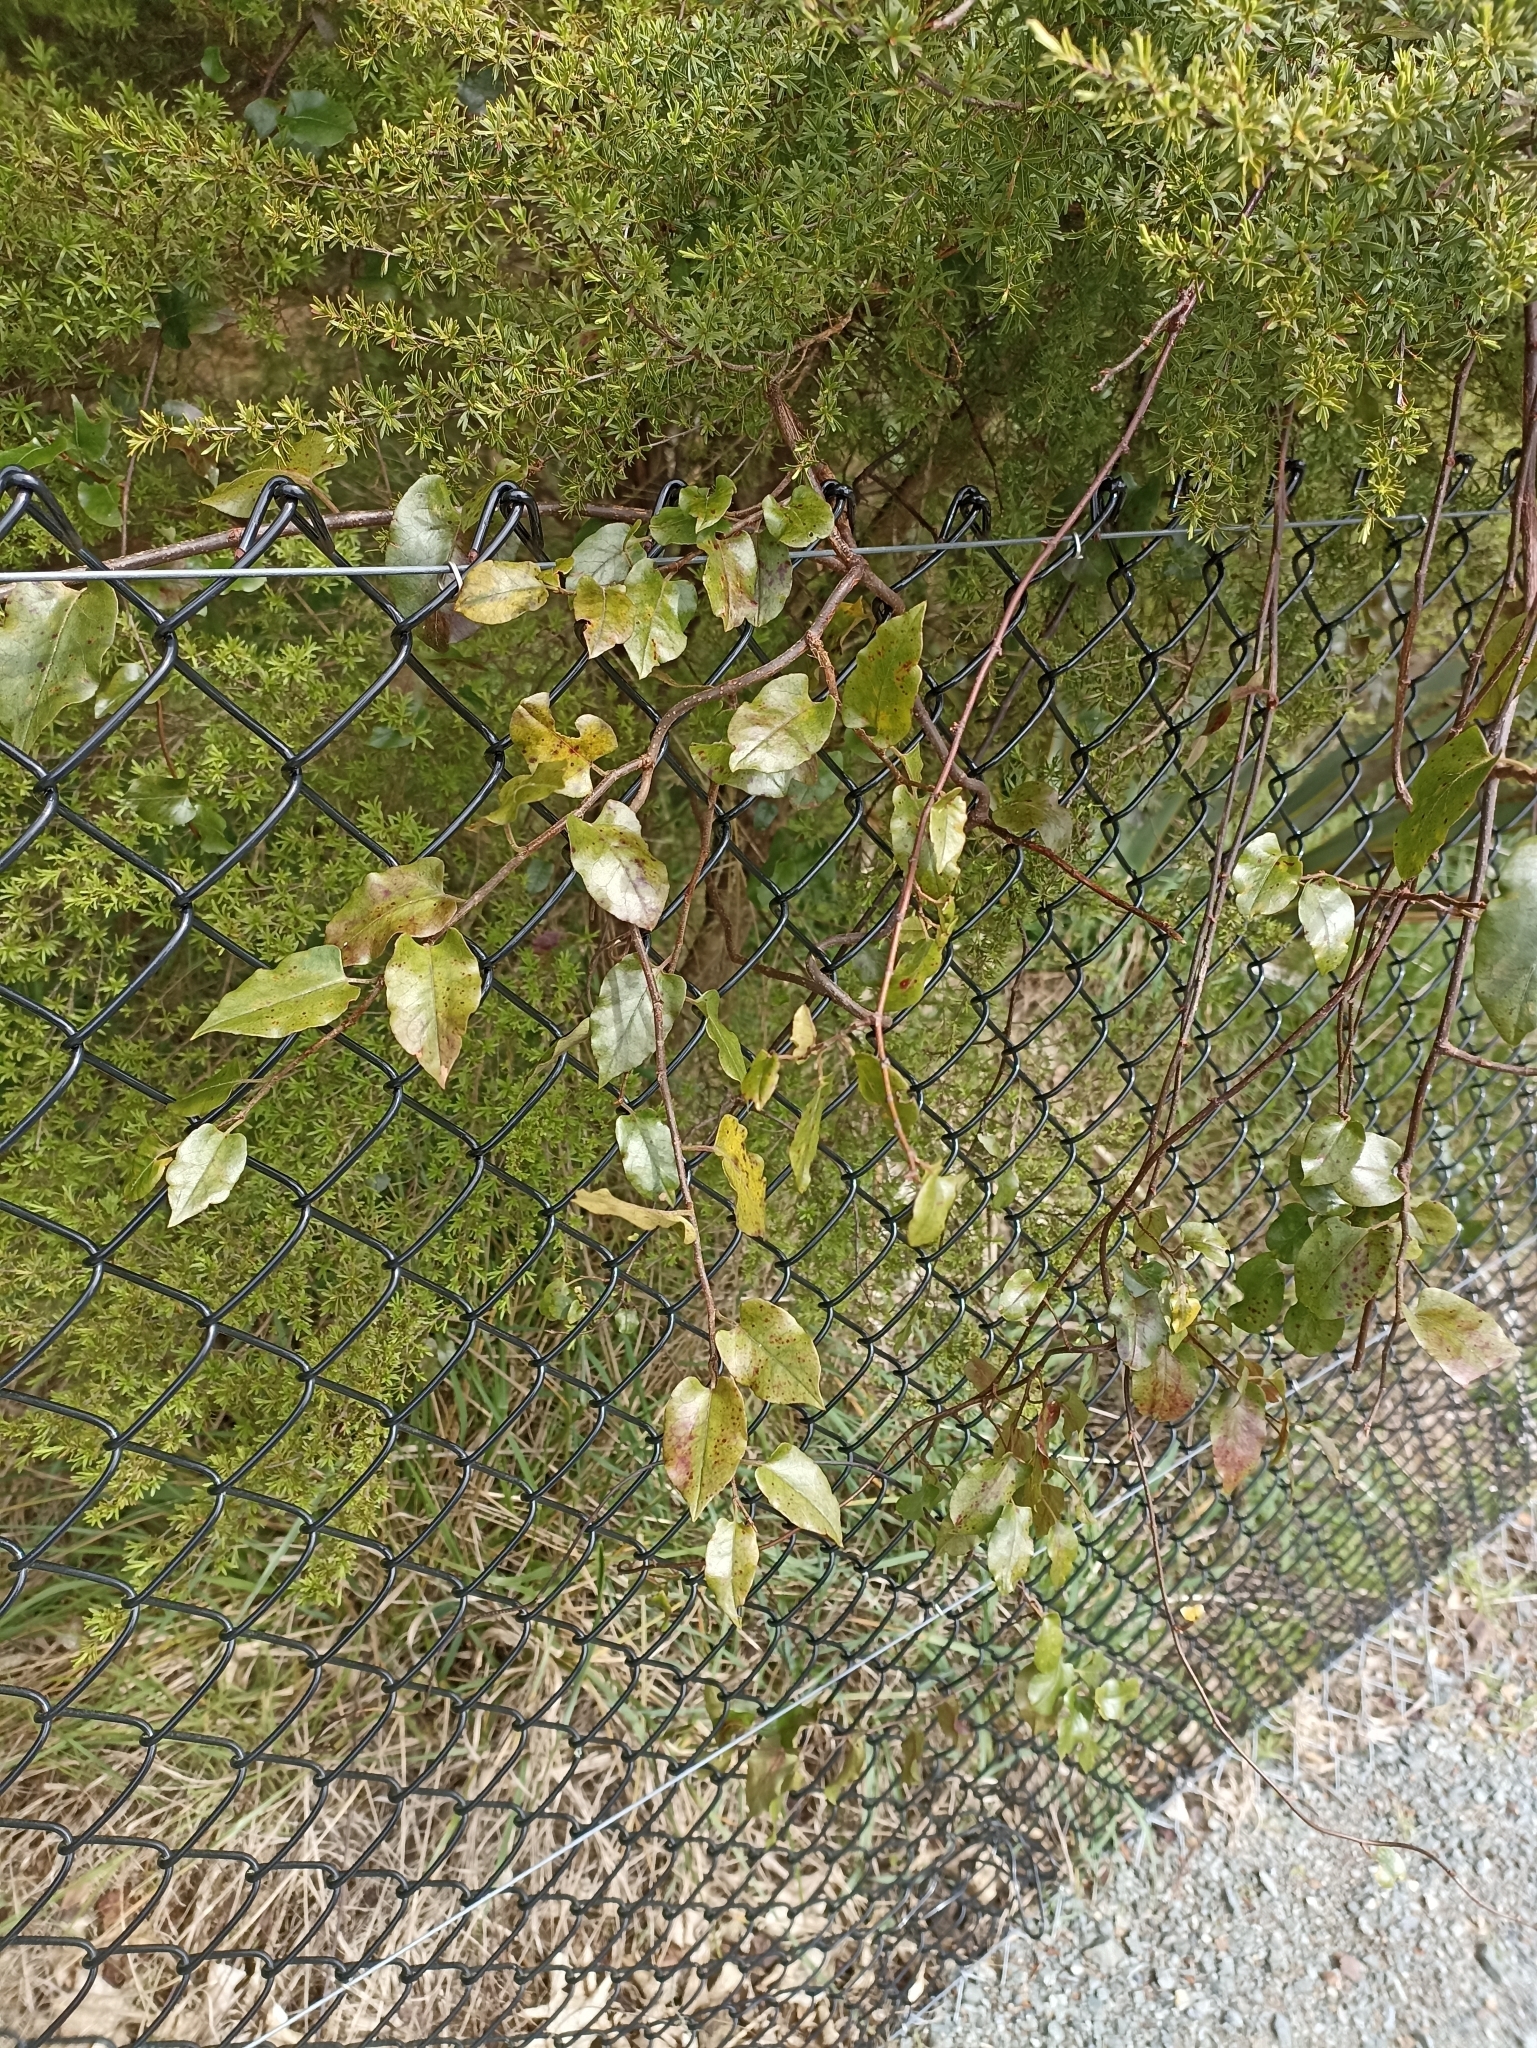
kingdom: Plantae
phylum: Tracheophyta
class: Magnoliopsida
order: Caryophyllales
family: Polygonaceae
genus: Muehlenbeckia
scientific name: Muehlenbeckia australis
